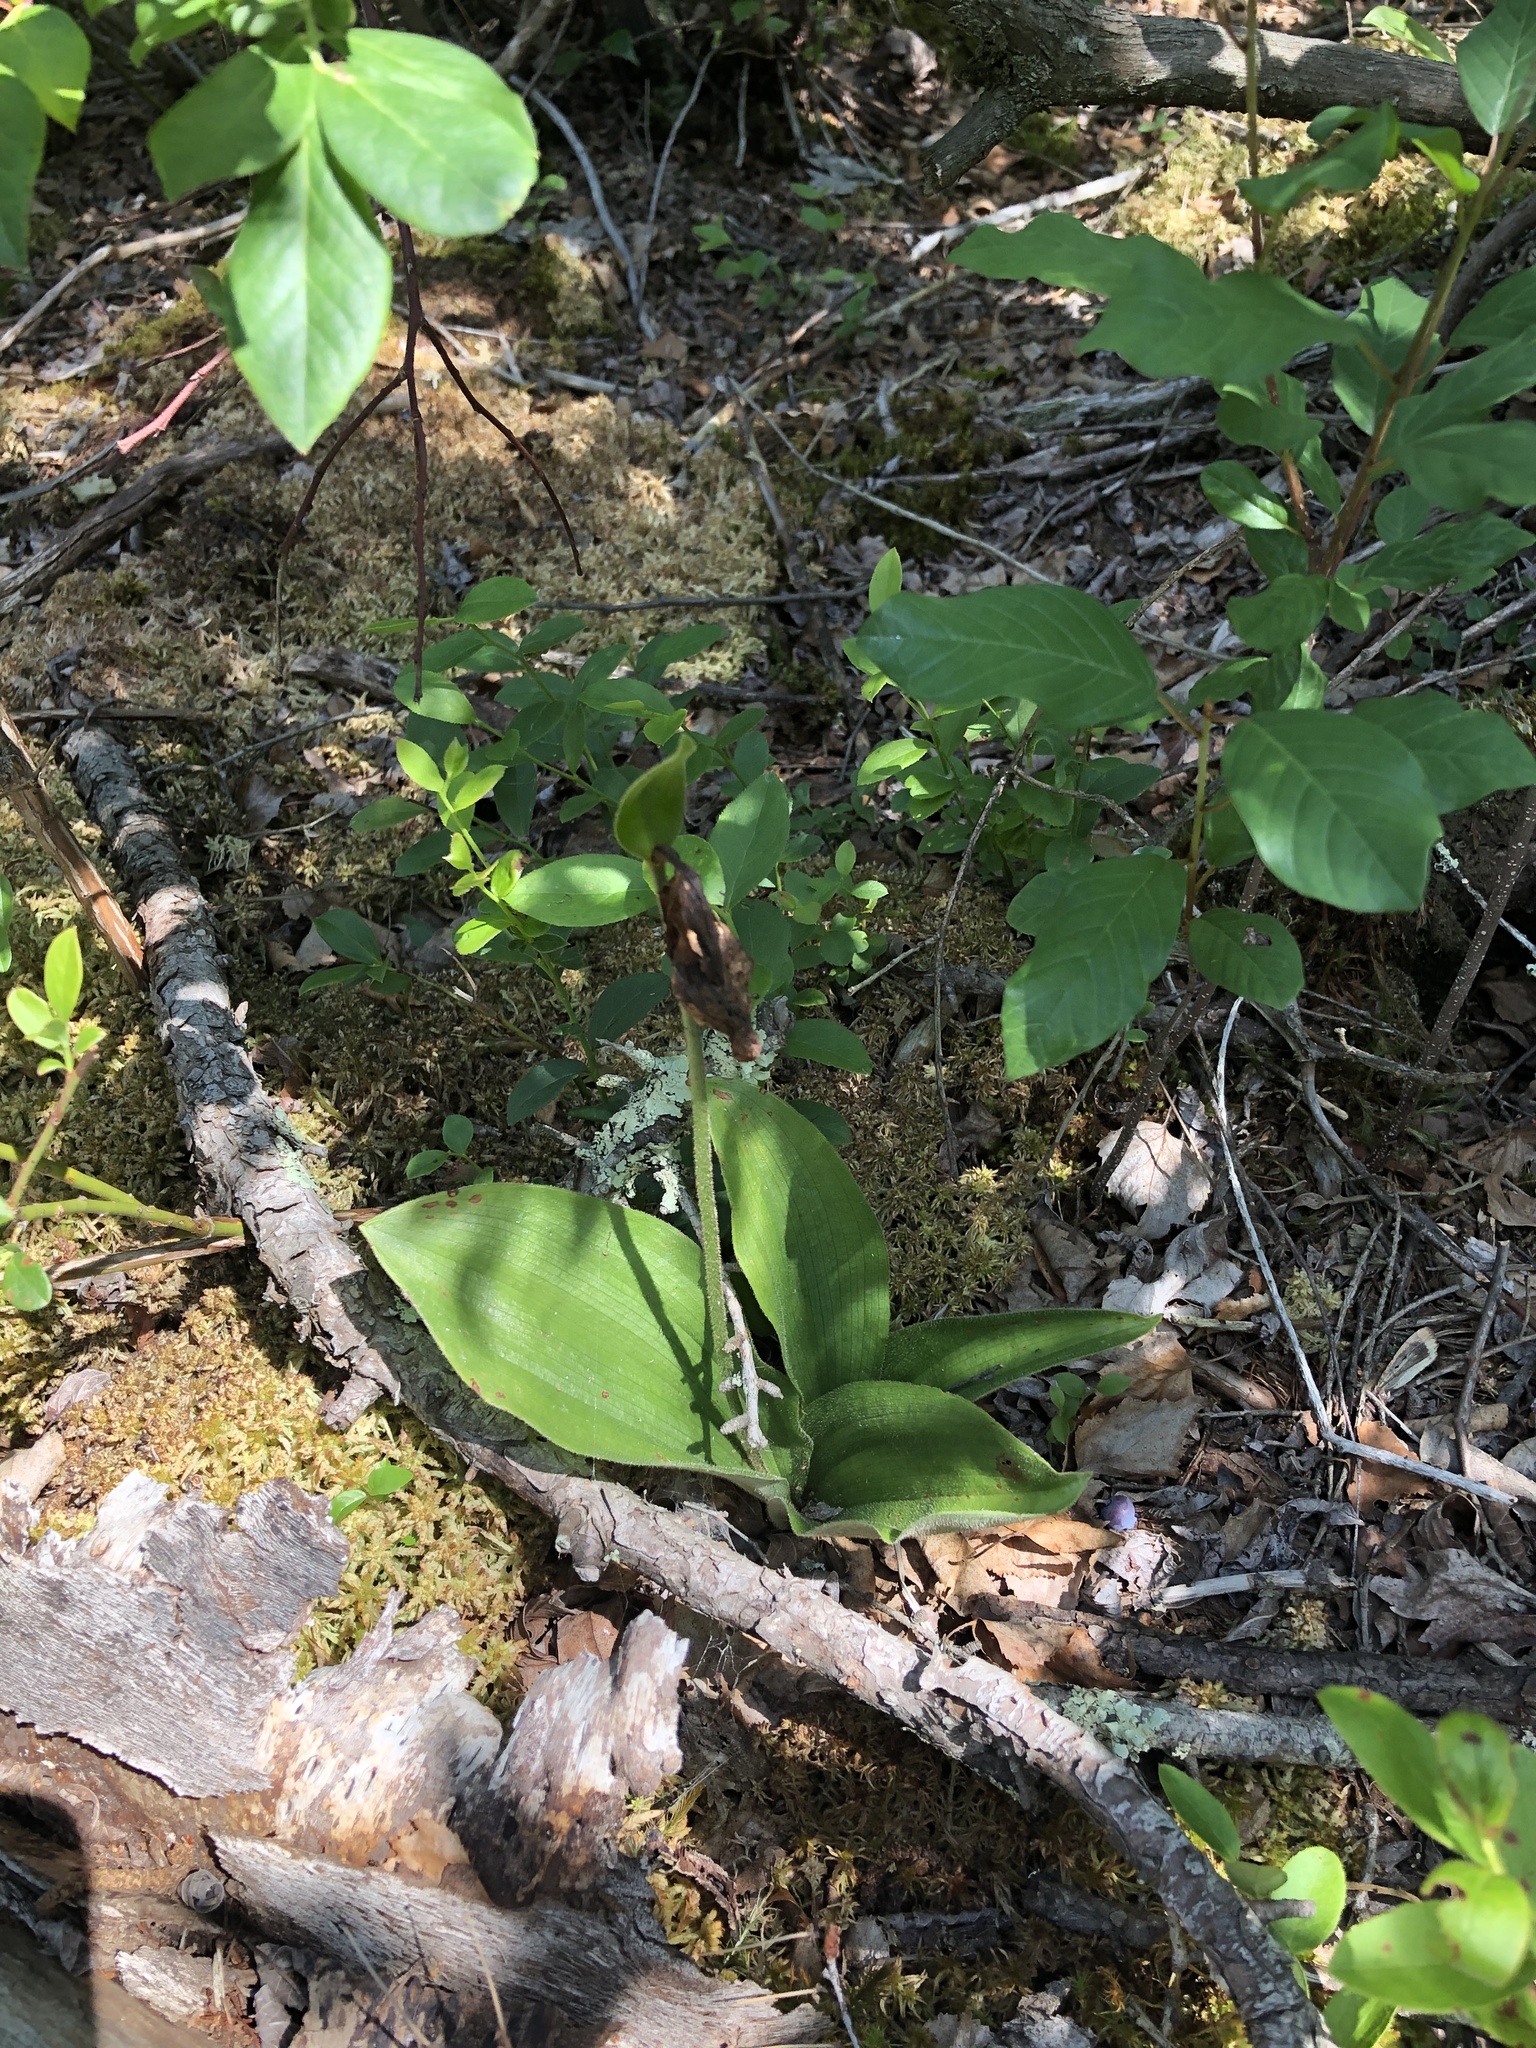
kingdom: Plantae
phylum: Tracheophyta
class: Liliopsida
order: Asparagales
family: Orchidaceae
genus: Cypripedium
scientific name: Cypripedium acaule
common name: Pink lady's-slipper
